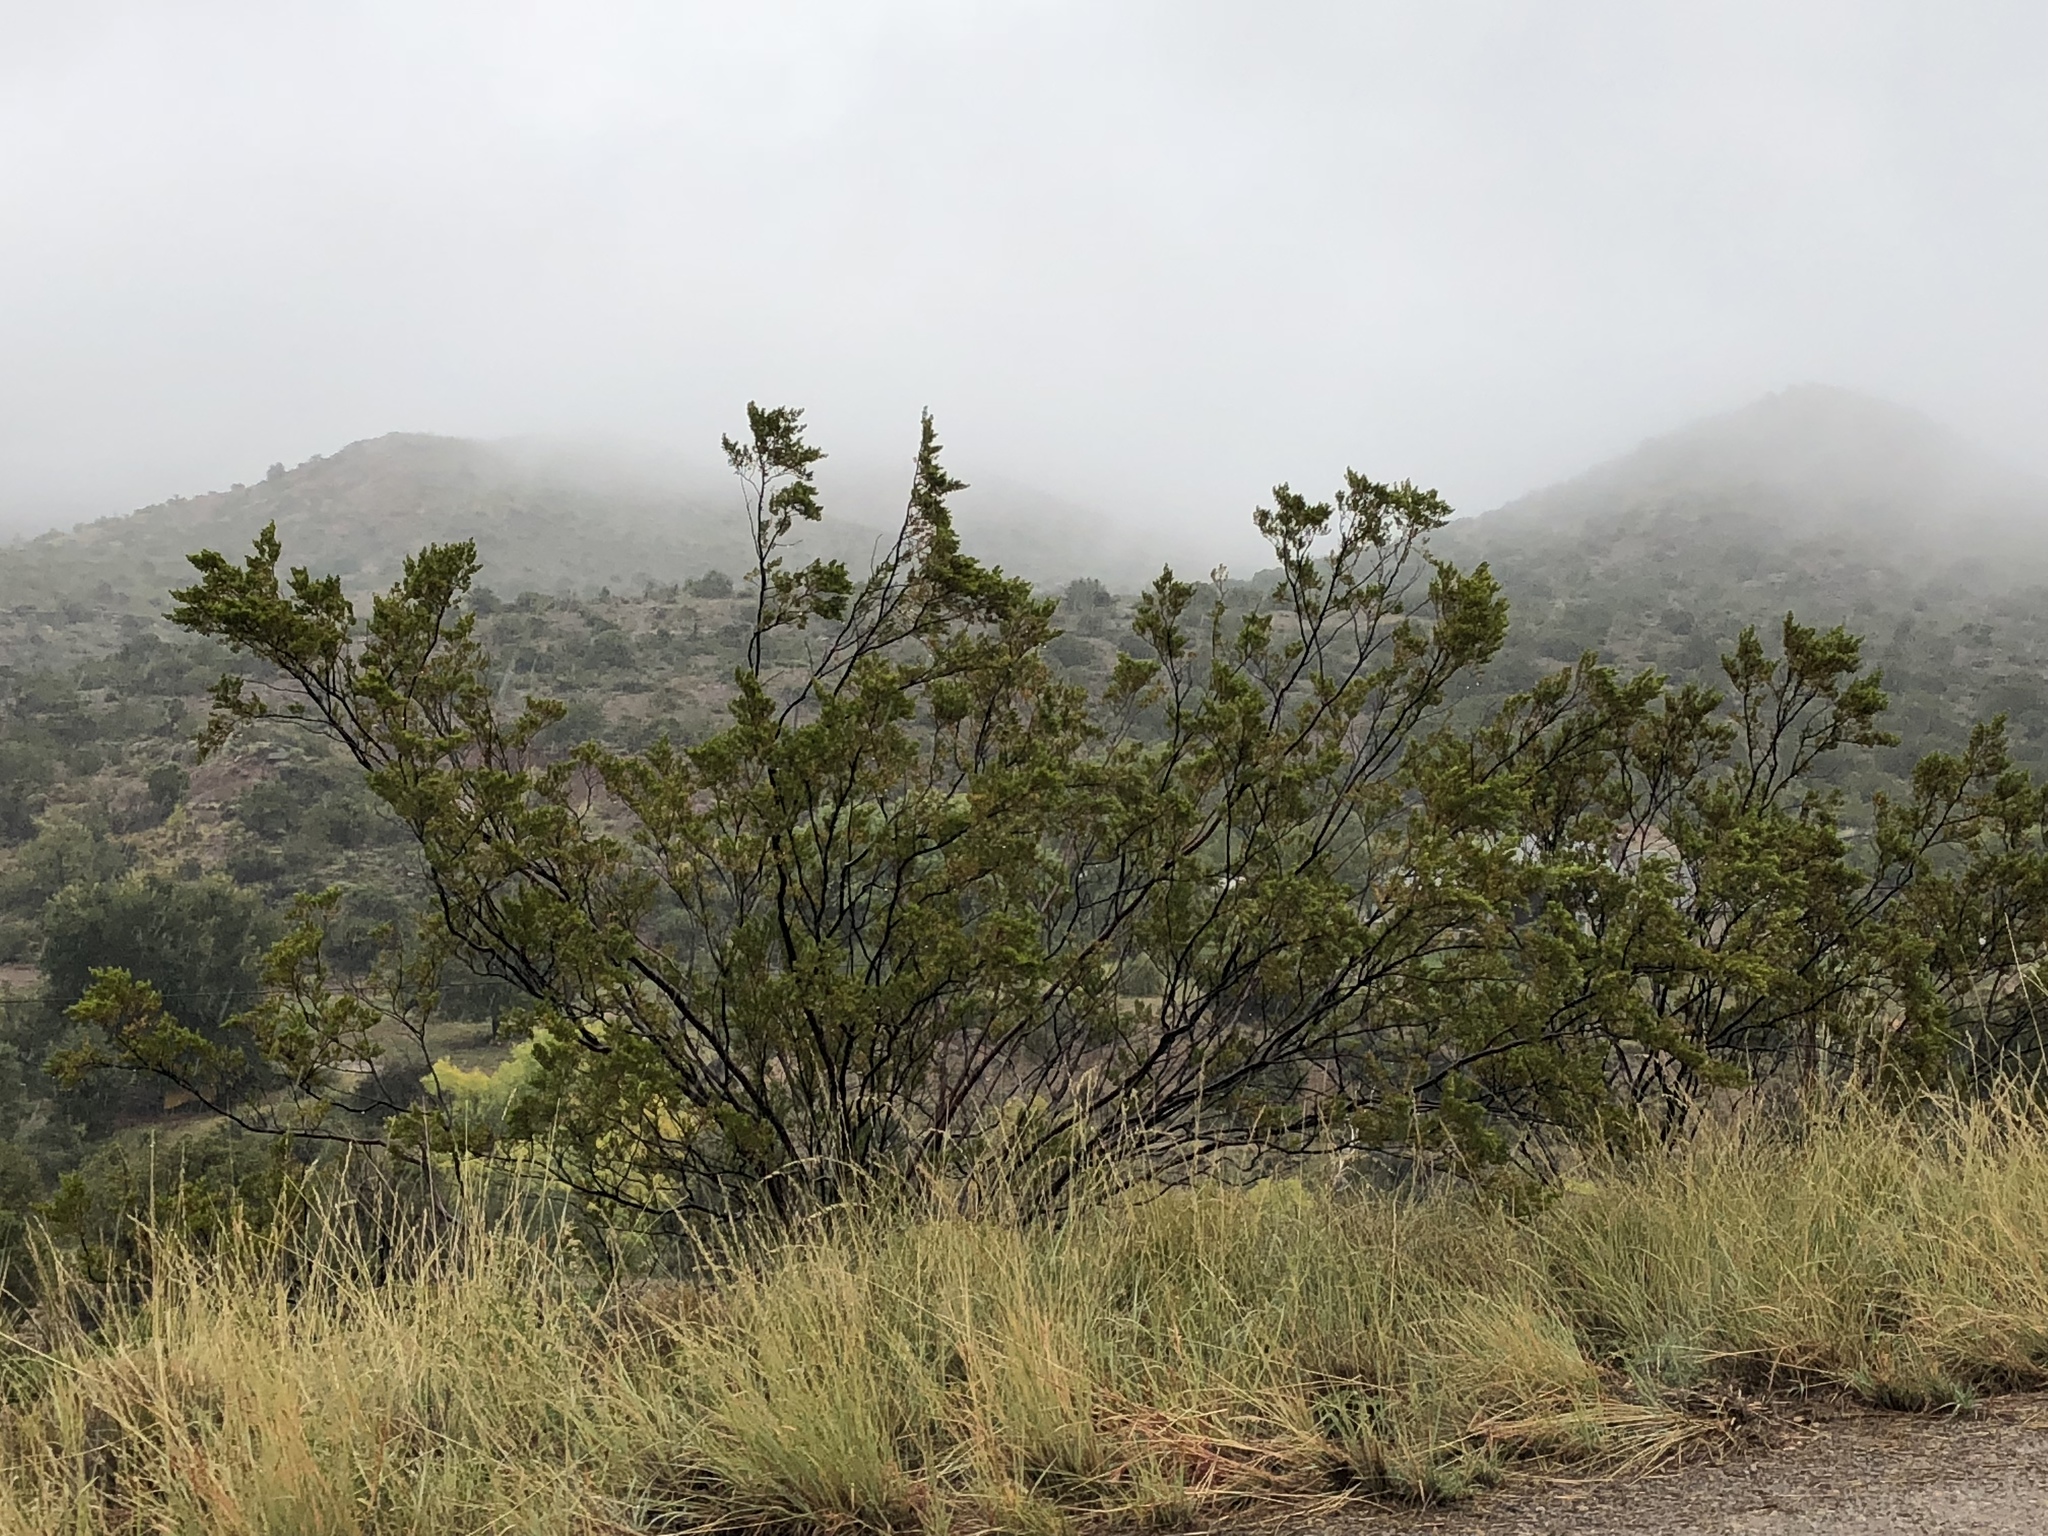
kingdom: Plantae
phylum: Tracheophyta
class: Magnoliopsida
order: Zygophyllales
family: Zygophyllaceae
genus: Larrea
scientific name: Larrea tridentata
